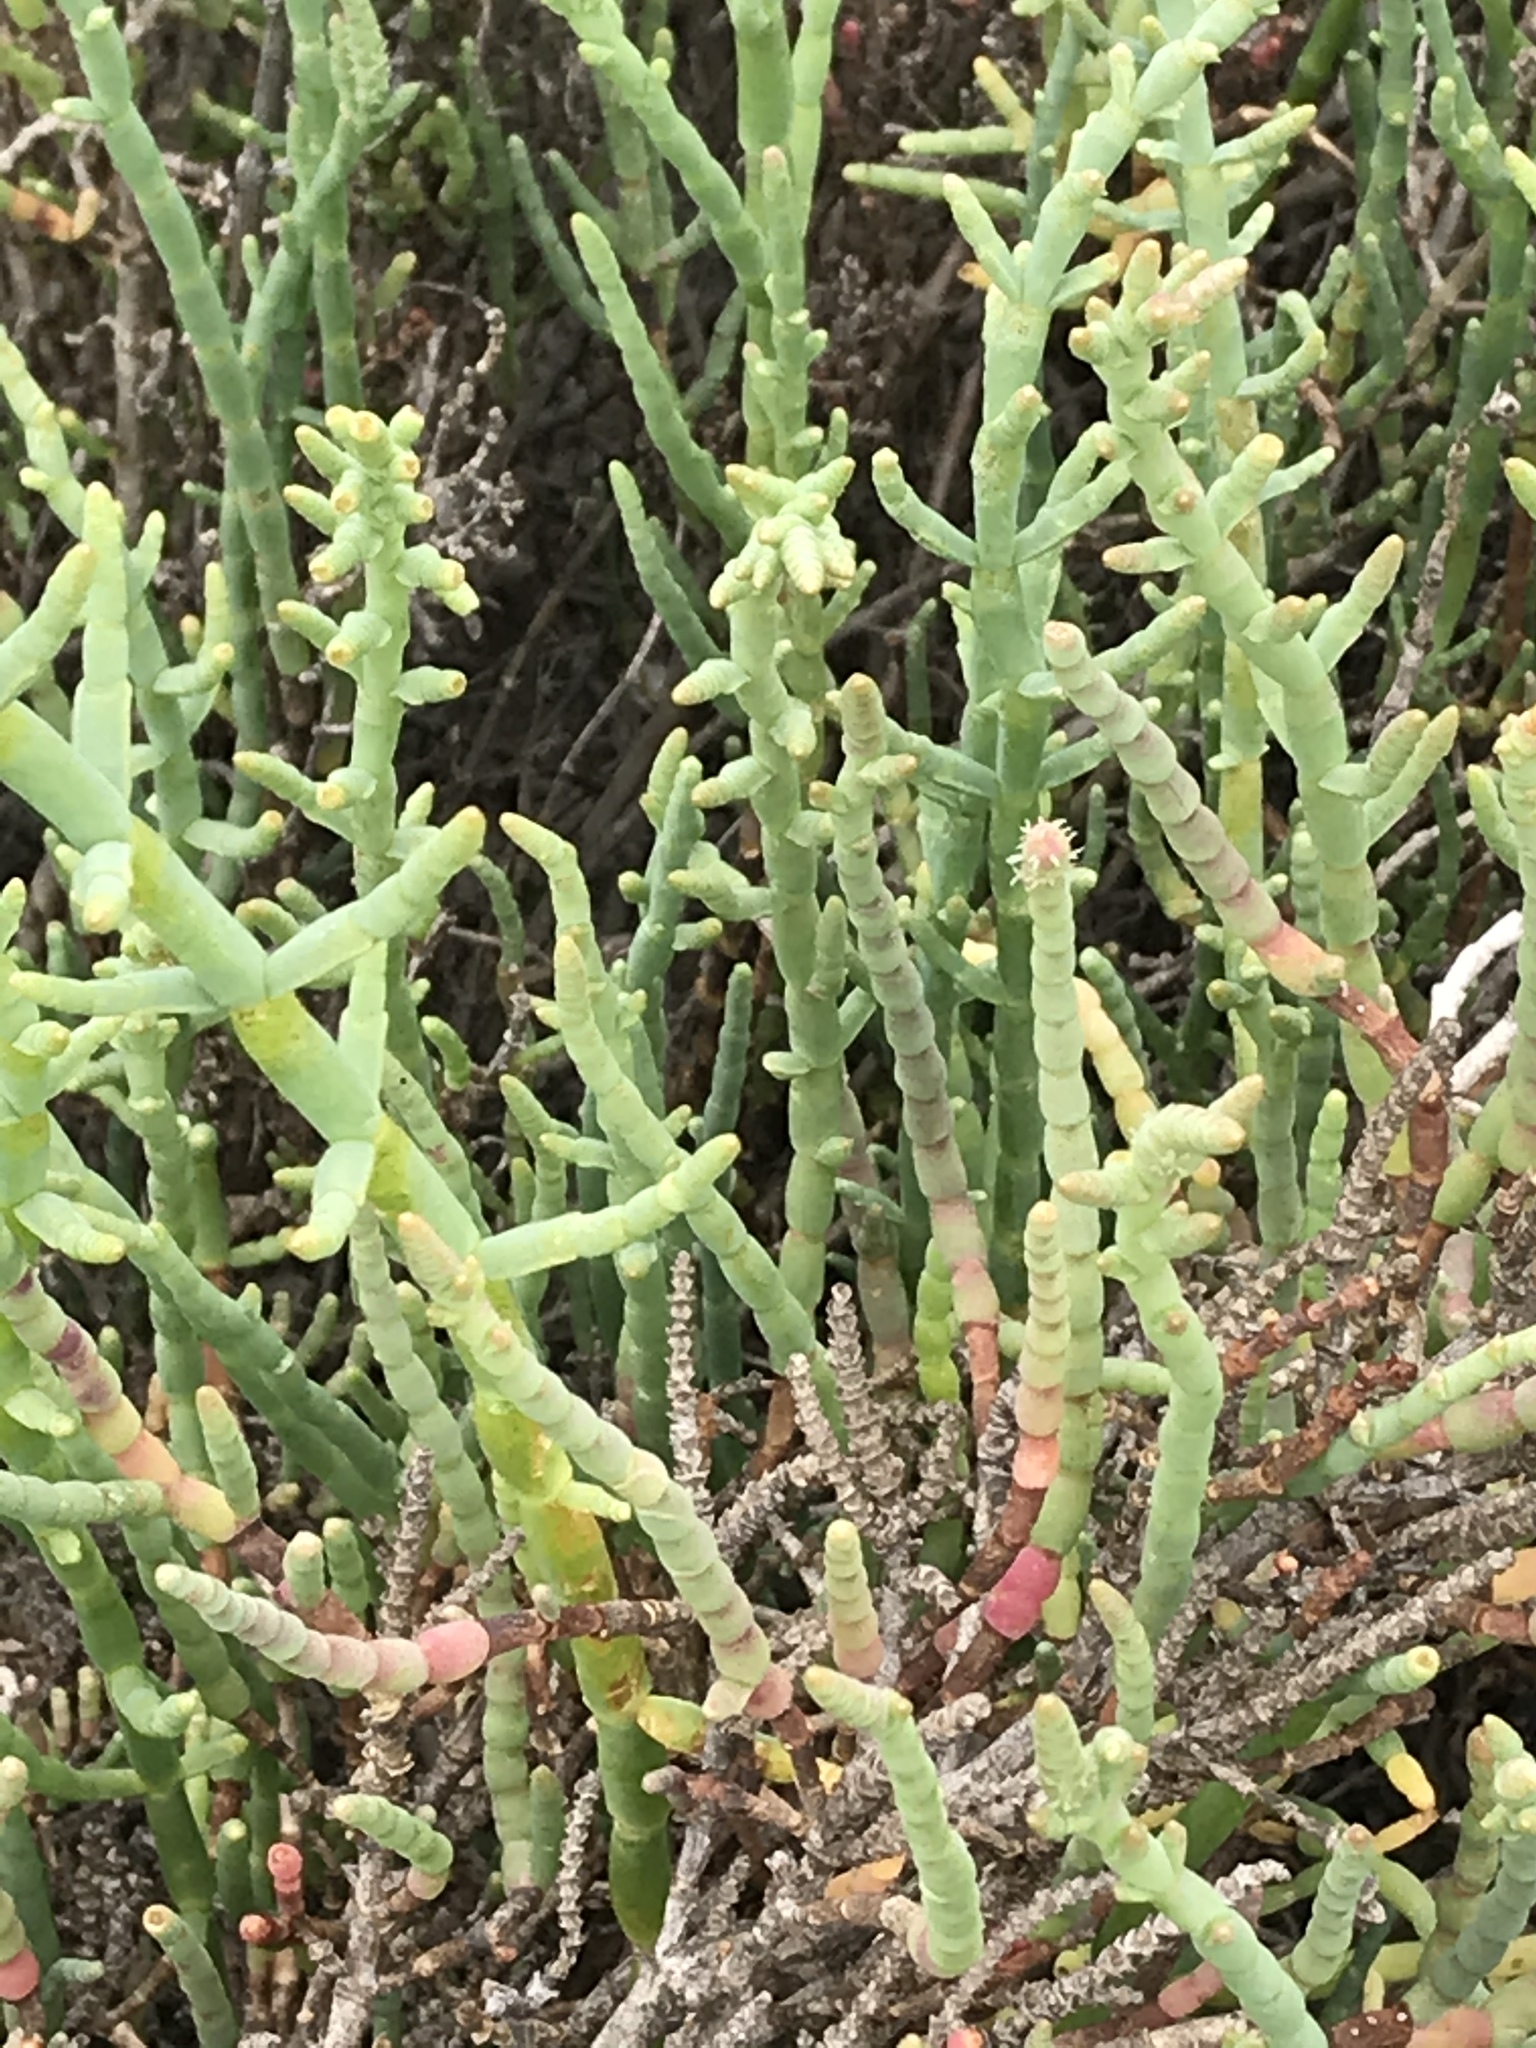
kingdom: Plantae
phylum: Tracheophyta
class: Magnoliopsida
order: Caryophyllales
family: Amaranthaceae
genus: Salicornia
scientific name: Salicornia pacifica
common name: Pacific glasswort
